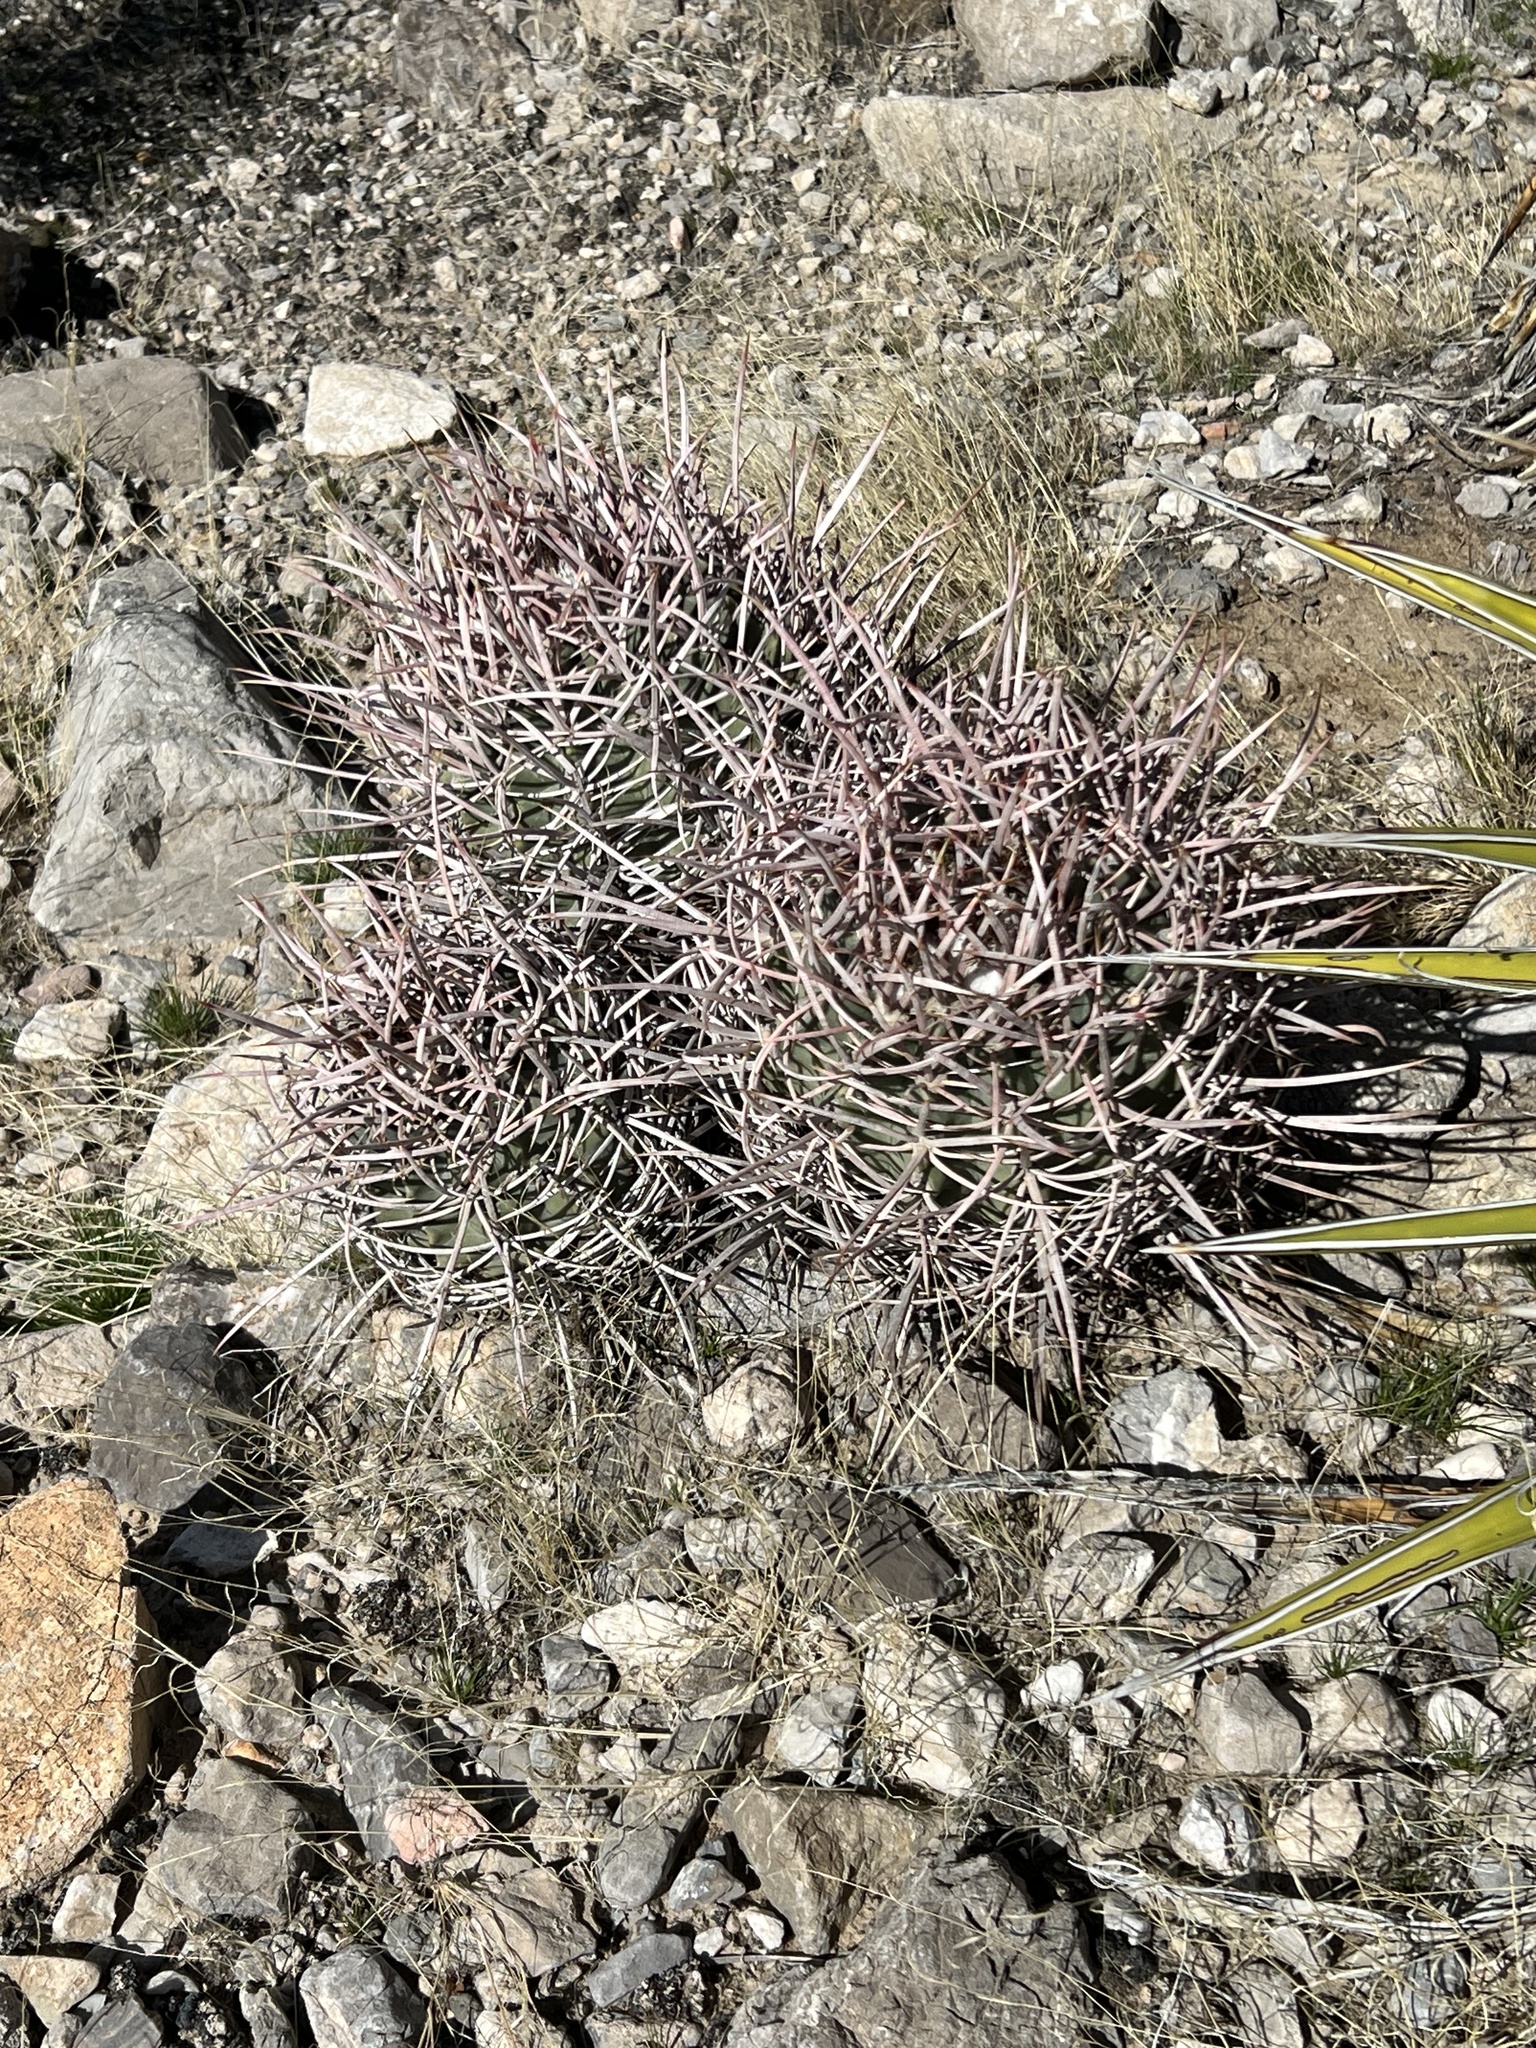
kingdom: Plantae
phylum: Tracheophyta
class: Magnoliopsida
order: Caryophyllales
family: Cactaceae
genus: Echinocactus
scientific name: Echinocactus polycephalus
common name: Cottontop cactus
